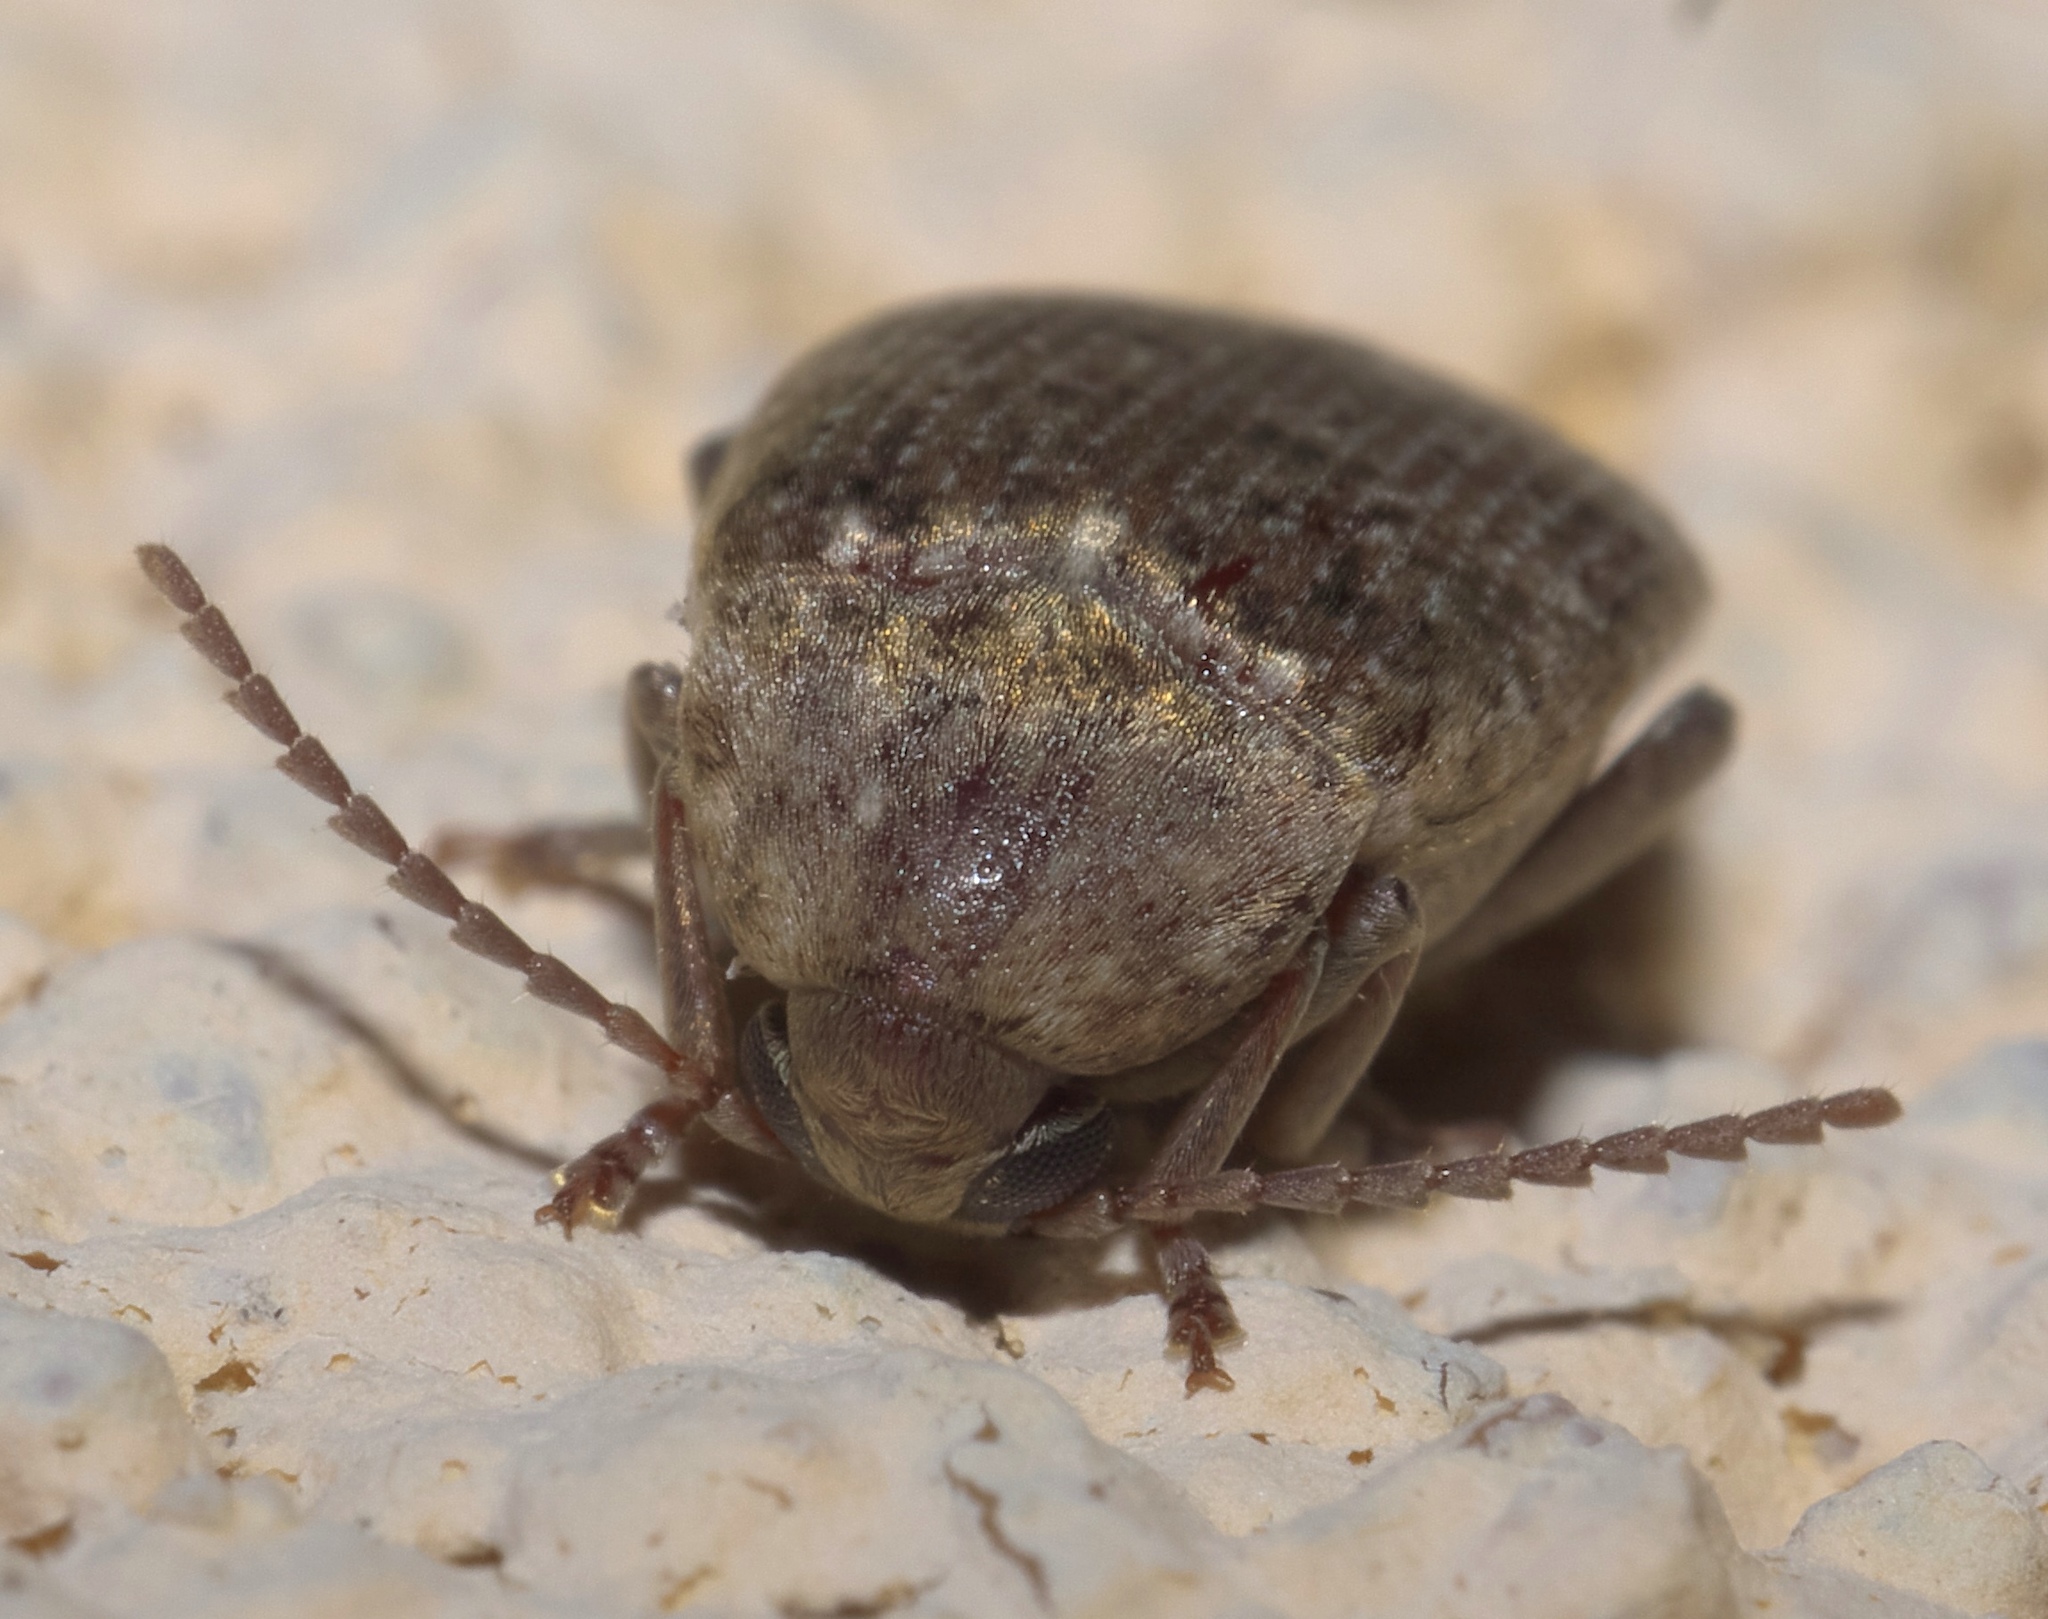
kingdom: Animalia
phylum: Arthropoda
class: Insecta
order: Coleoptera
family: Chrysomelidae
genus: Amblycerus
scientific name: Amblycerus robiniae
